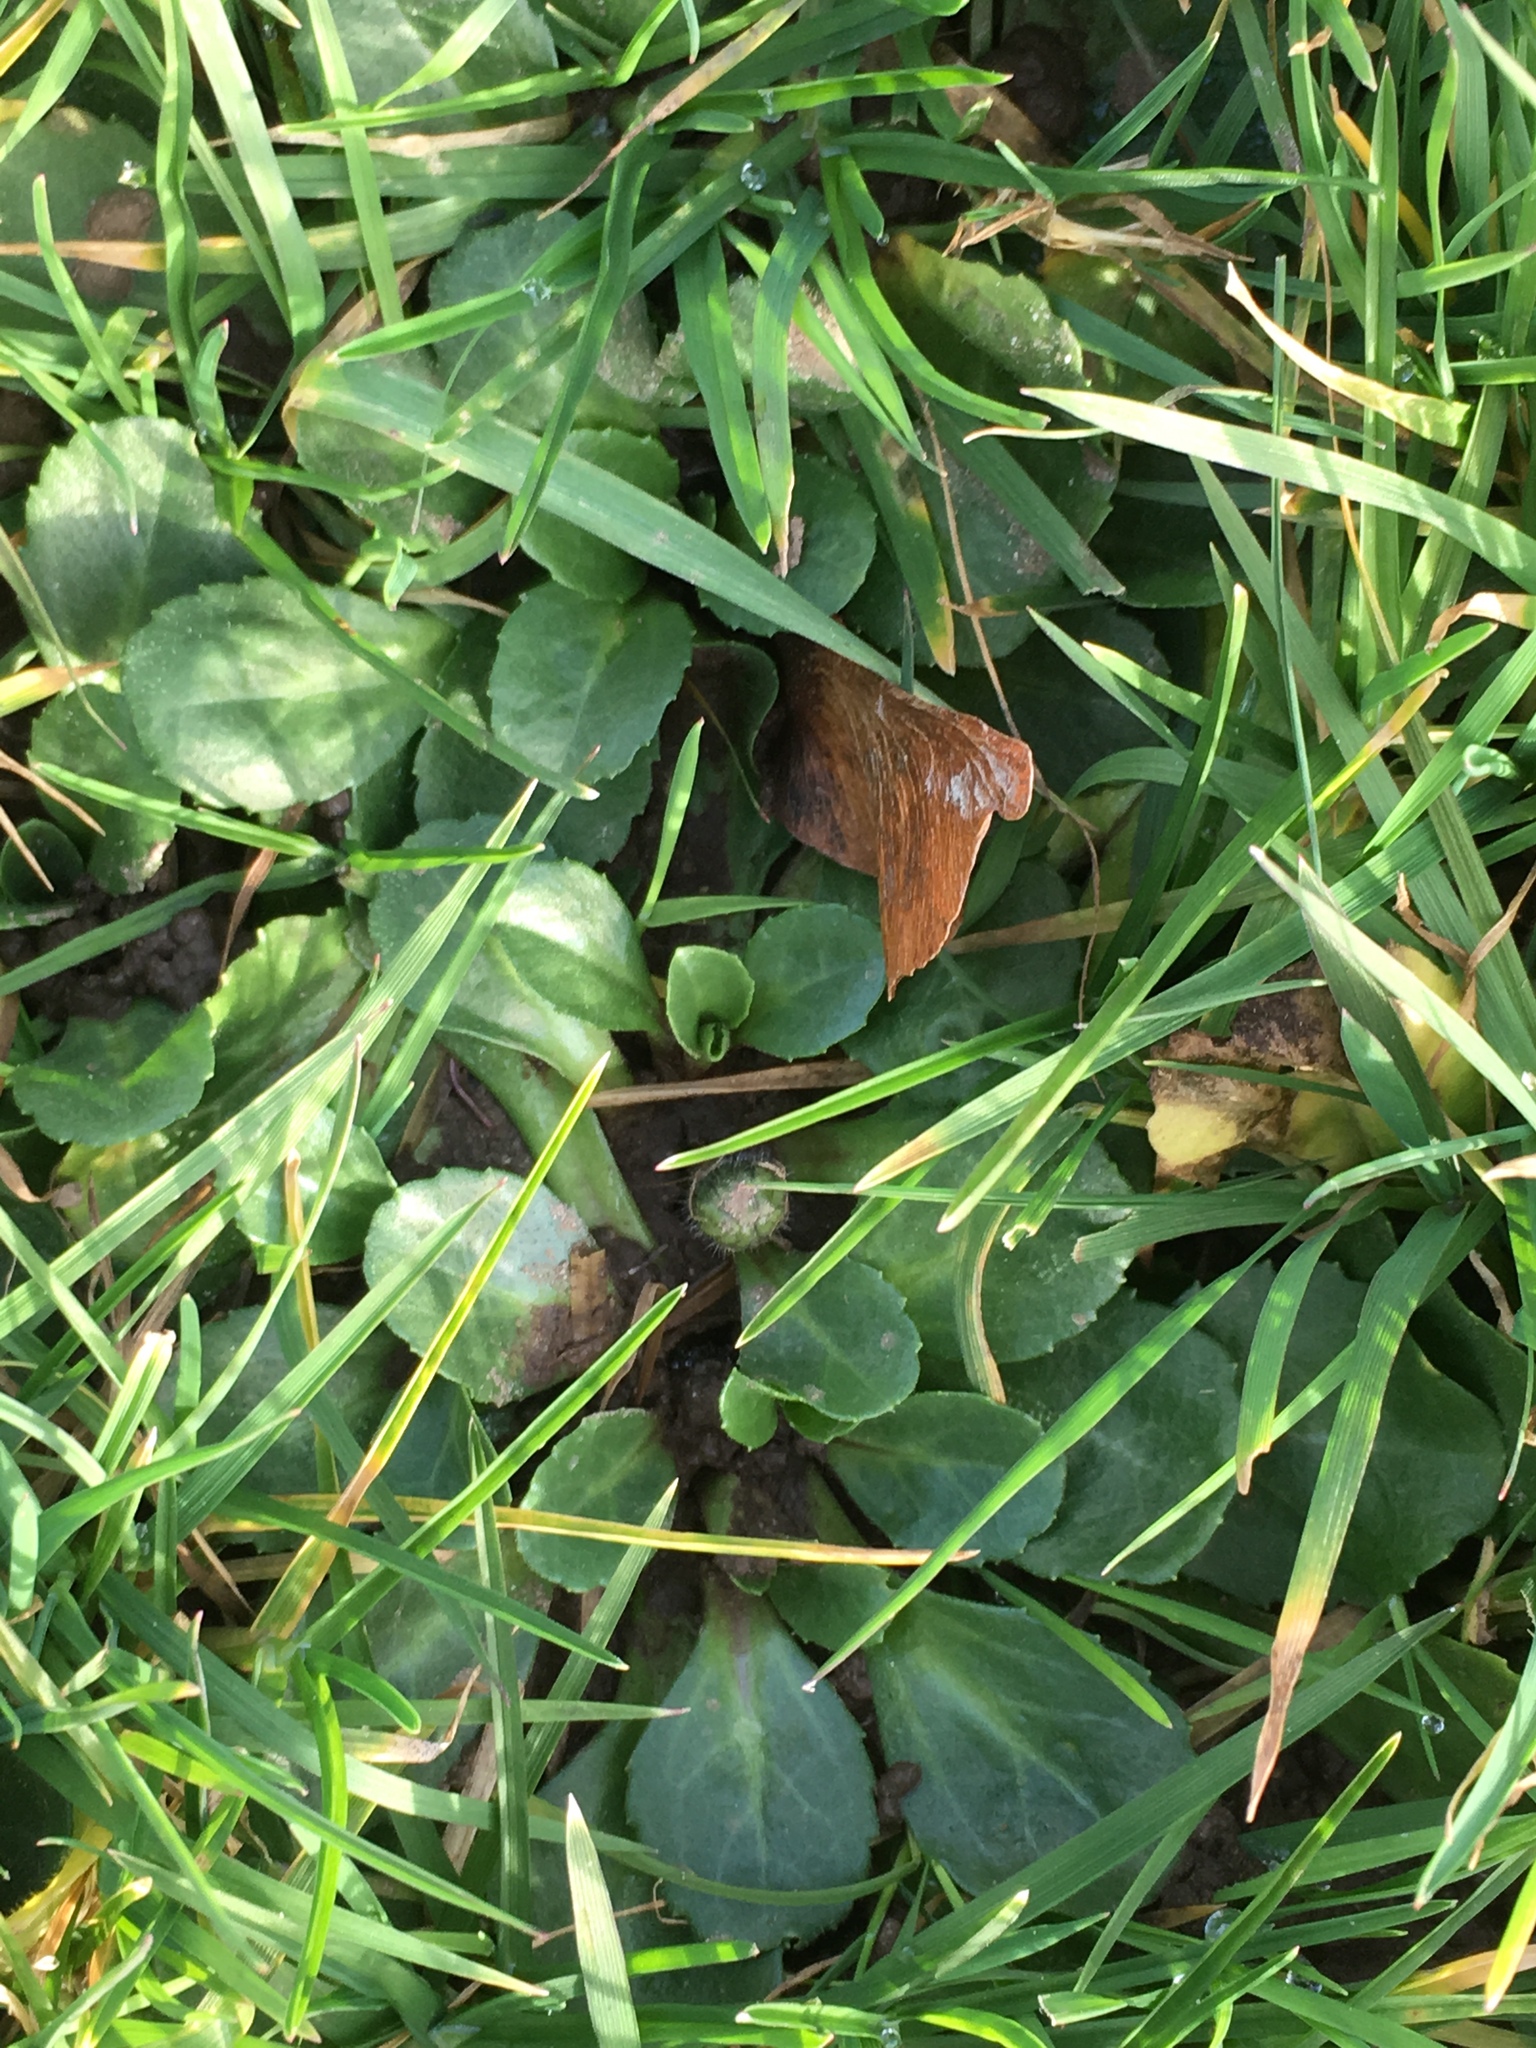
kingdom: Plantae
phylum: Tracheophyta
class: Magnoliopsida
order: Asterales
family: Asteraceae
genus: Bellis
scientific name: Bellis perennis
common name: Lawndaisy
